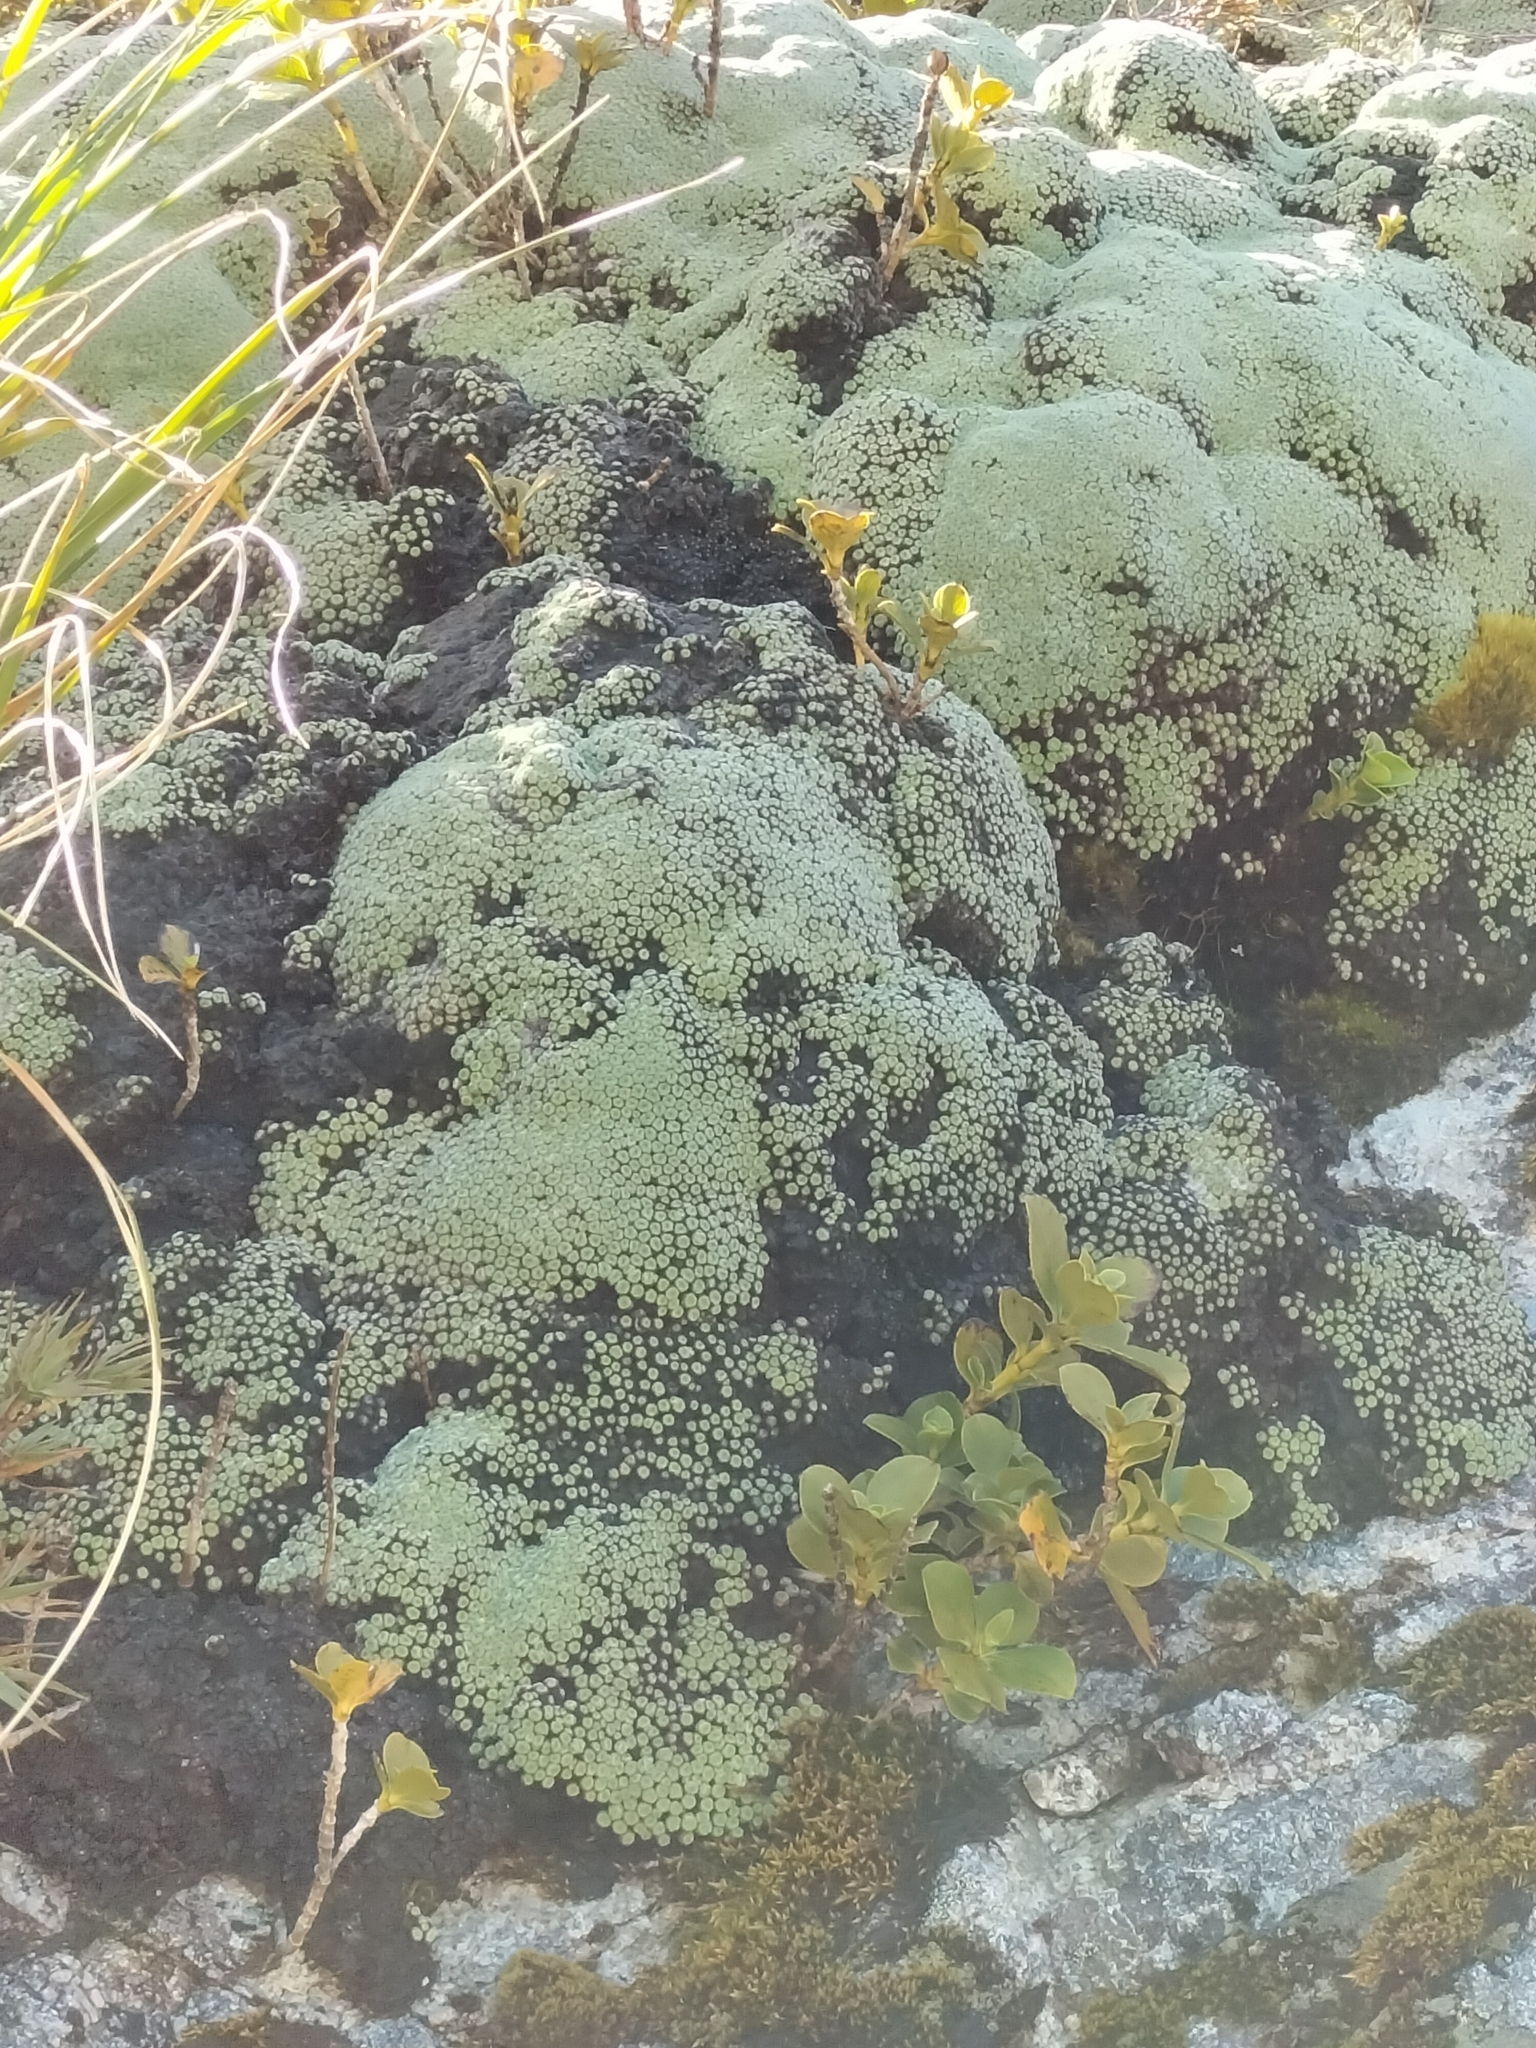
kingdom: Plantae
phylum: Tracheophyta
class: Magnoliopsida
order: Asterales
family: Asteraceae
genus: Raoulia
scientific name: Raoulia eximia
